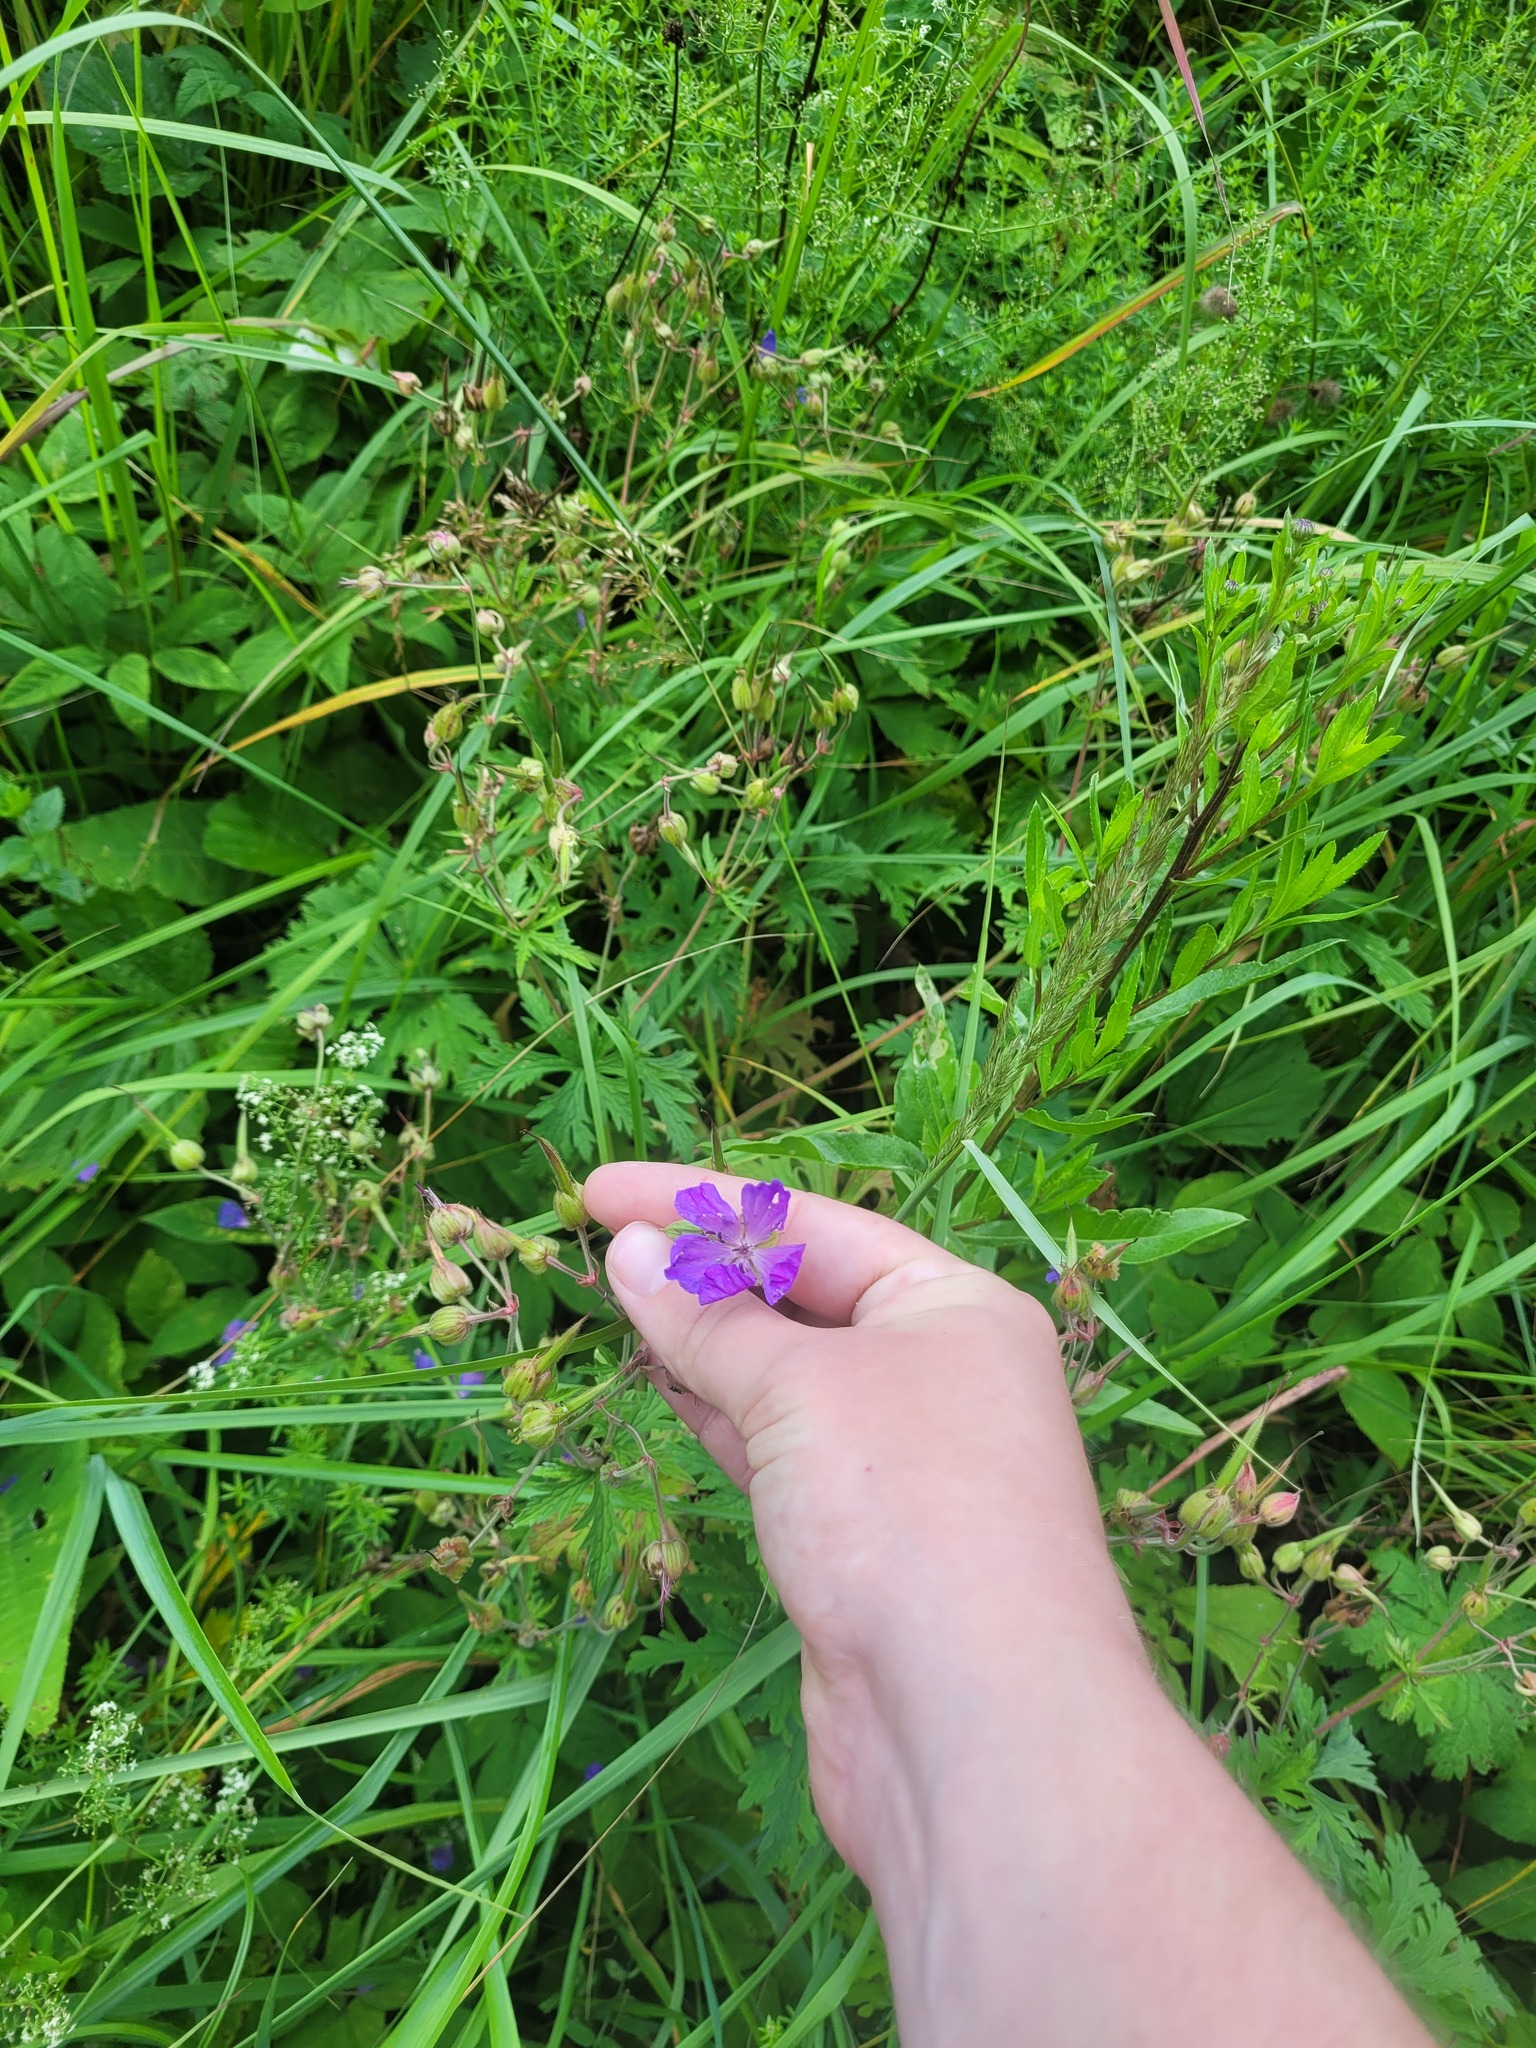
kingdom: Plantae
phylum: Tracheophyta
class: Magnoliopsida
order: Geraniales
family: Geraniaceae
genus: Geranium
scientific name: Geranium pratense
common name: Meadow crane's-bill
